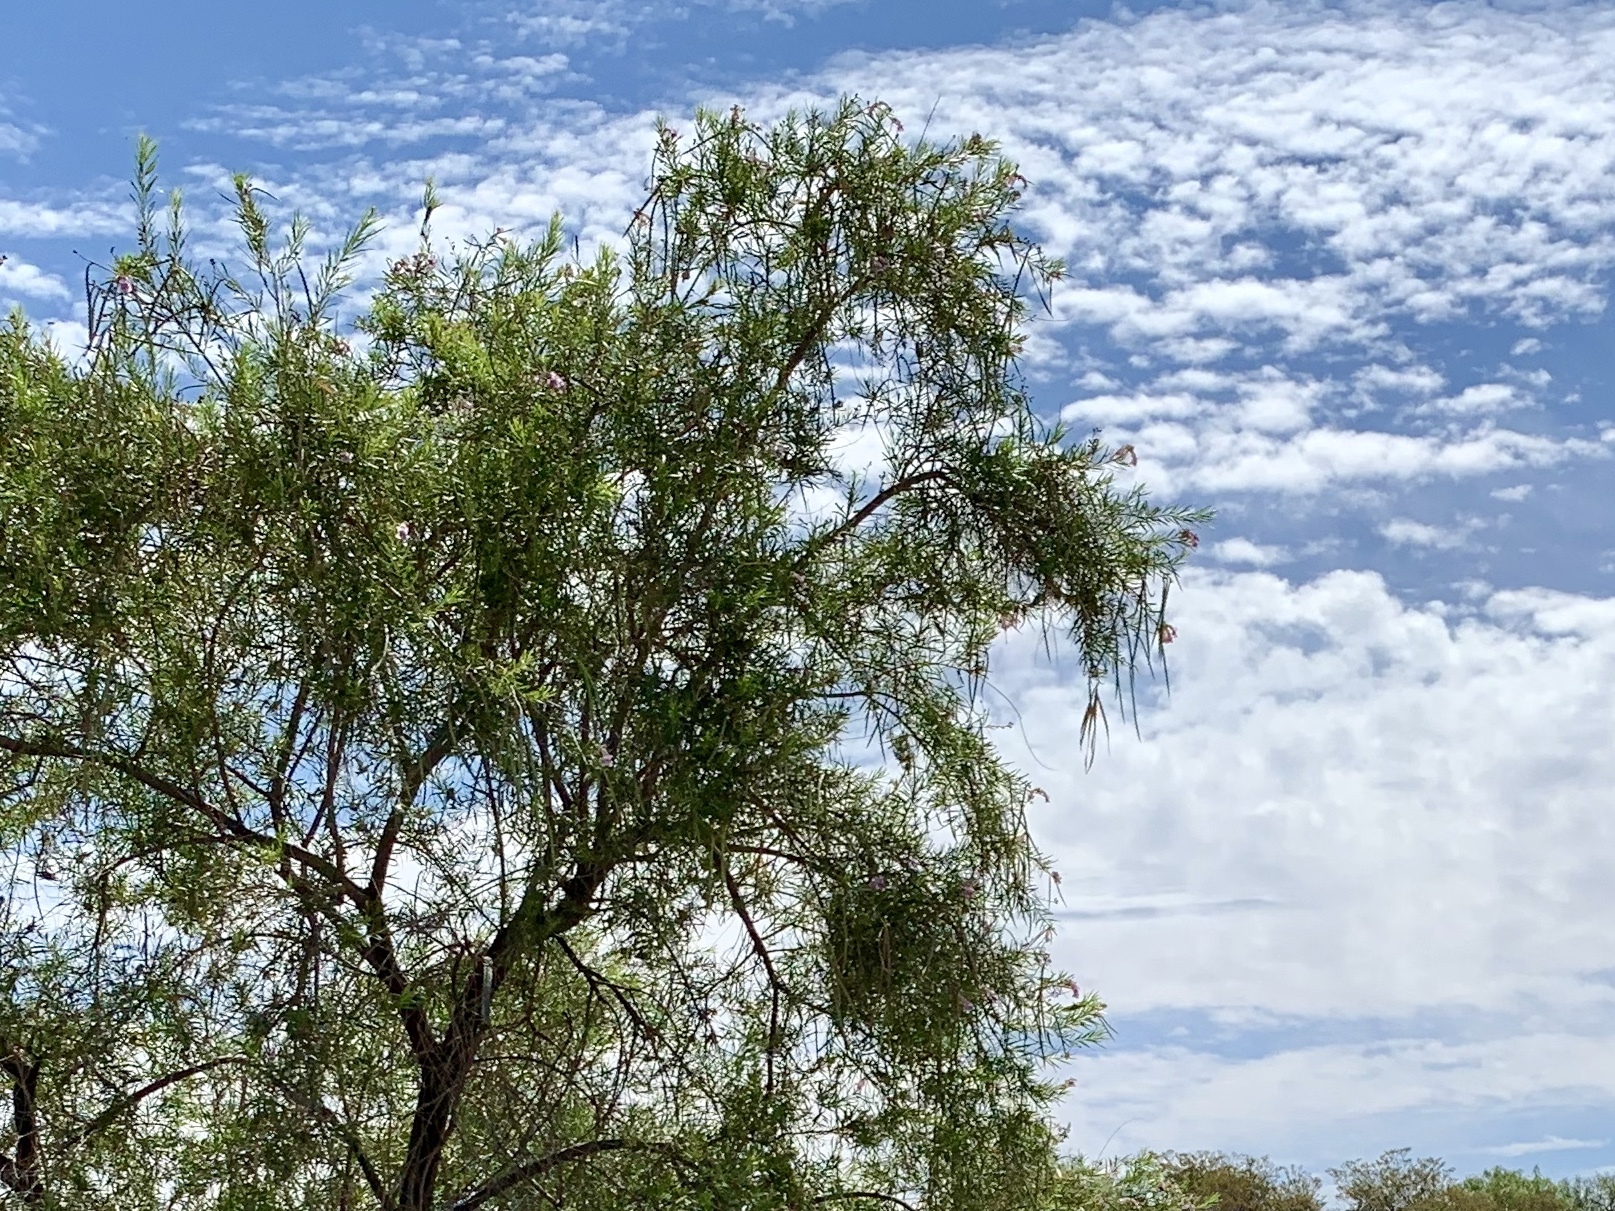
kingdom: Plantae
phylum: Tracheophyta
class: Magnoliopsida
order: Lamiales
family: Bignoniaceae
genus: Chilopsis
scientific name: Chilopsis linearis
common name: Desert-willow
